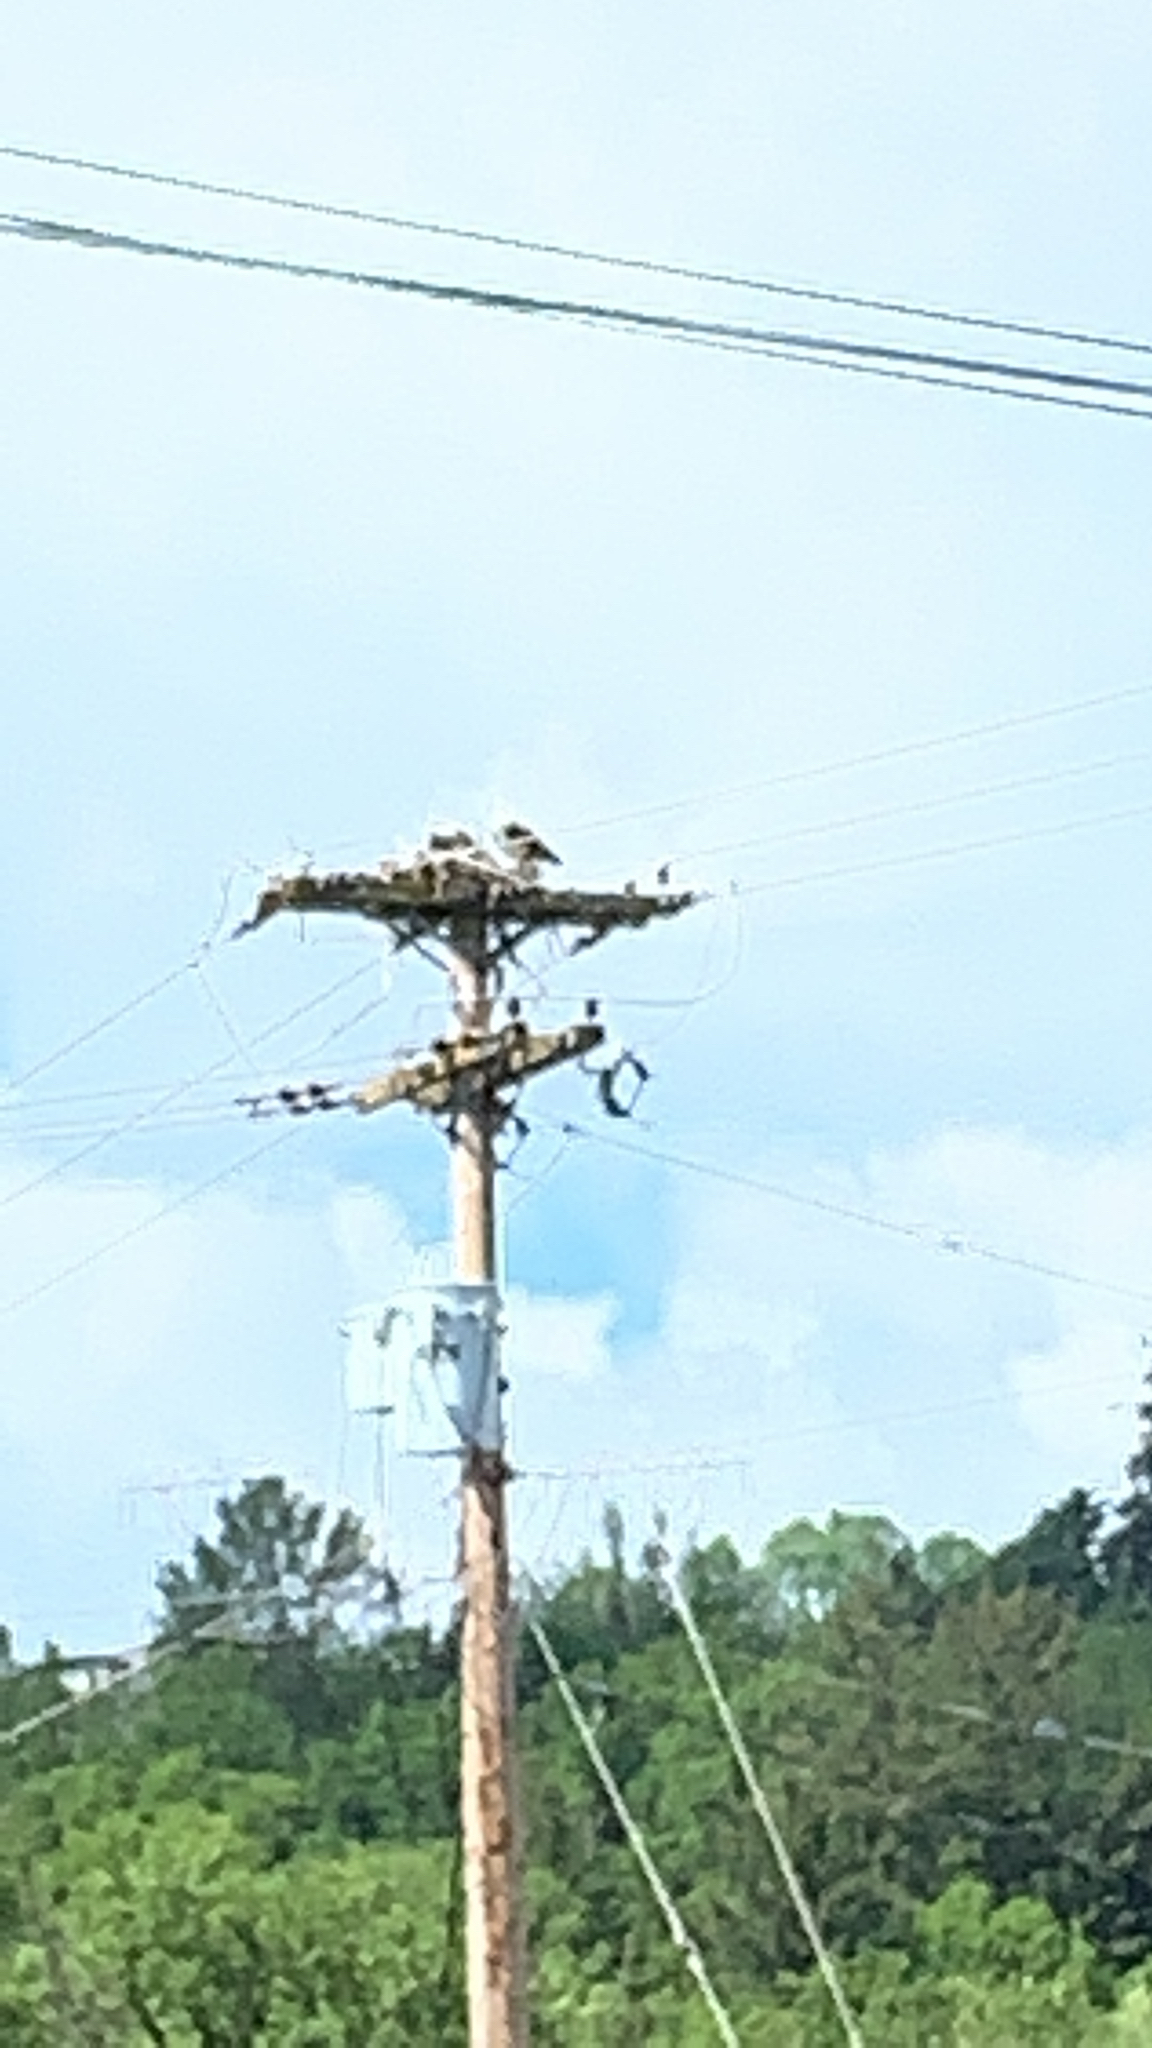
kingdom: Animalia
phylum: Chordata
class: Aves
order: Accipitriformes
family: Pandionidae
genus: Pandion
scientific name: Pandion haliaetus
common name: Osprey
